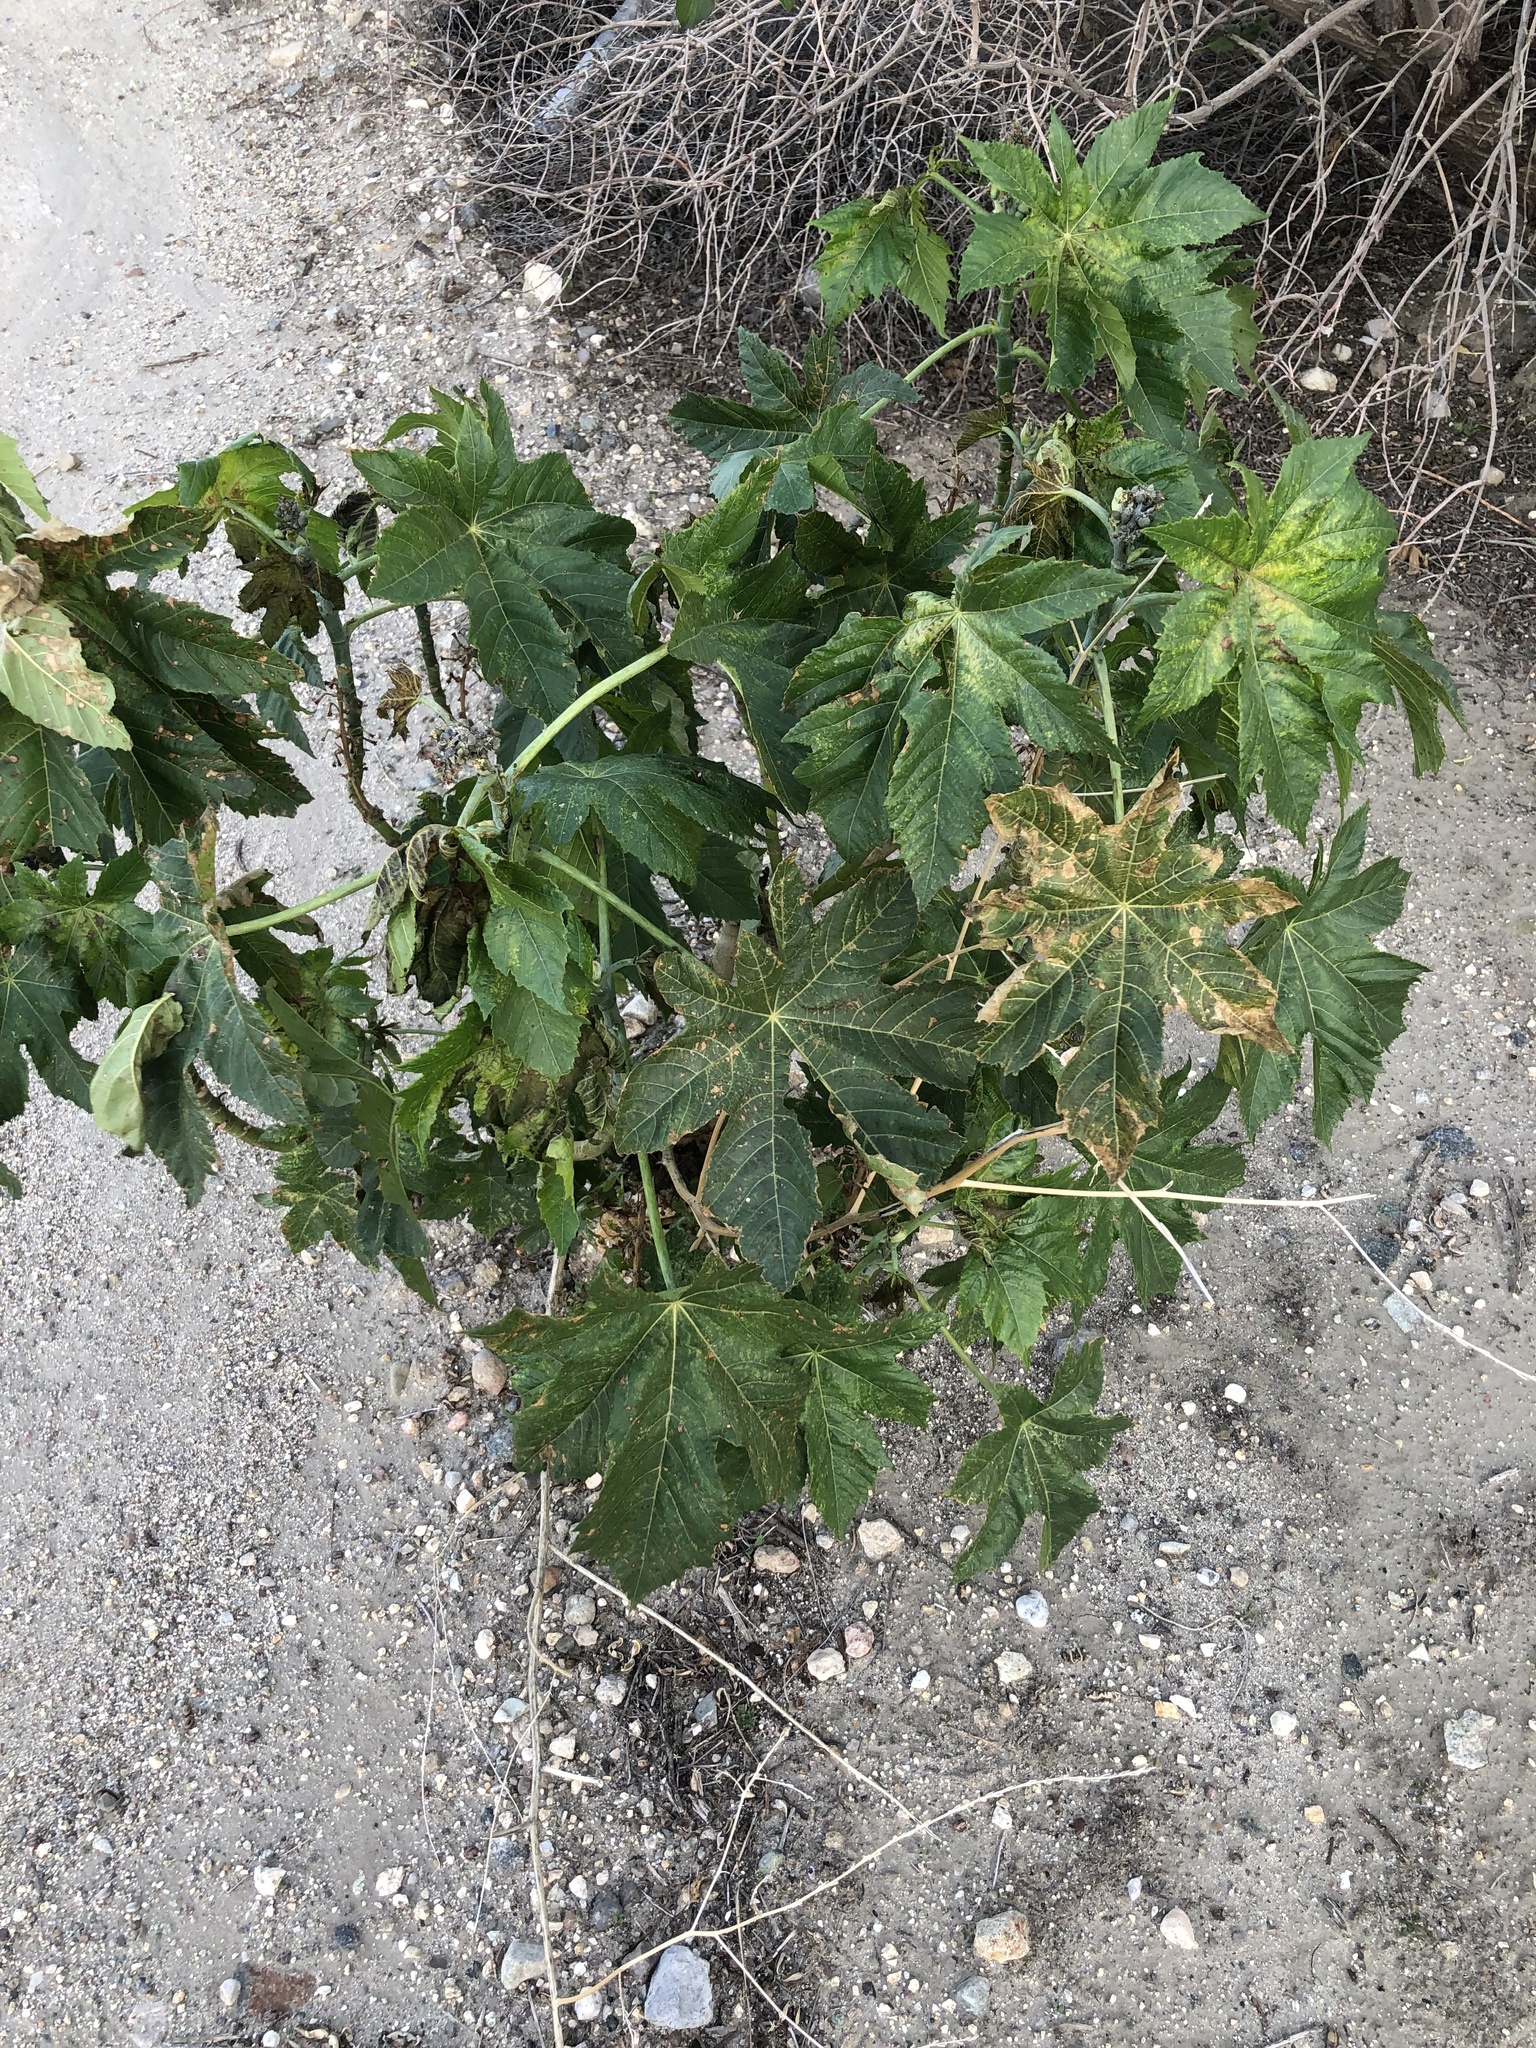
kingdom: Plantae
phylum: Tracheophyta
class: Magnoliopsida
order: Malpighiales
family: Euphorbiaceae
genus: Ricinus
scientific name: Ricinus communis
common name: Castor-oil-plant
